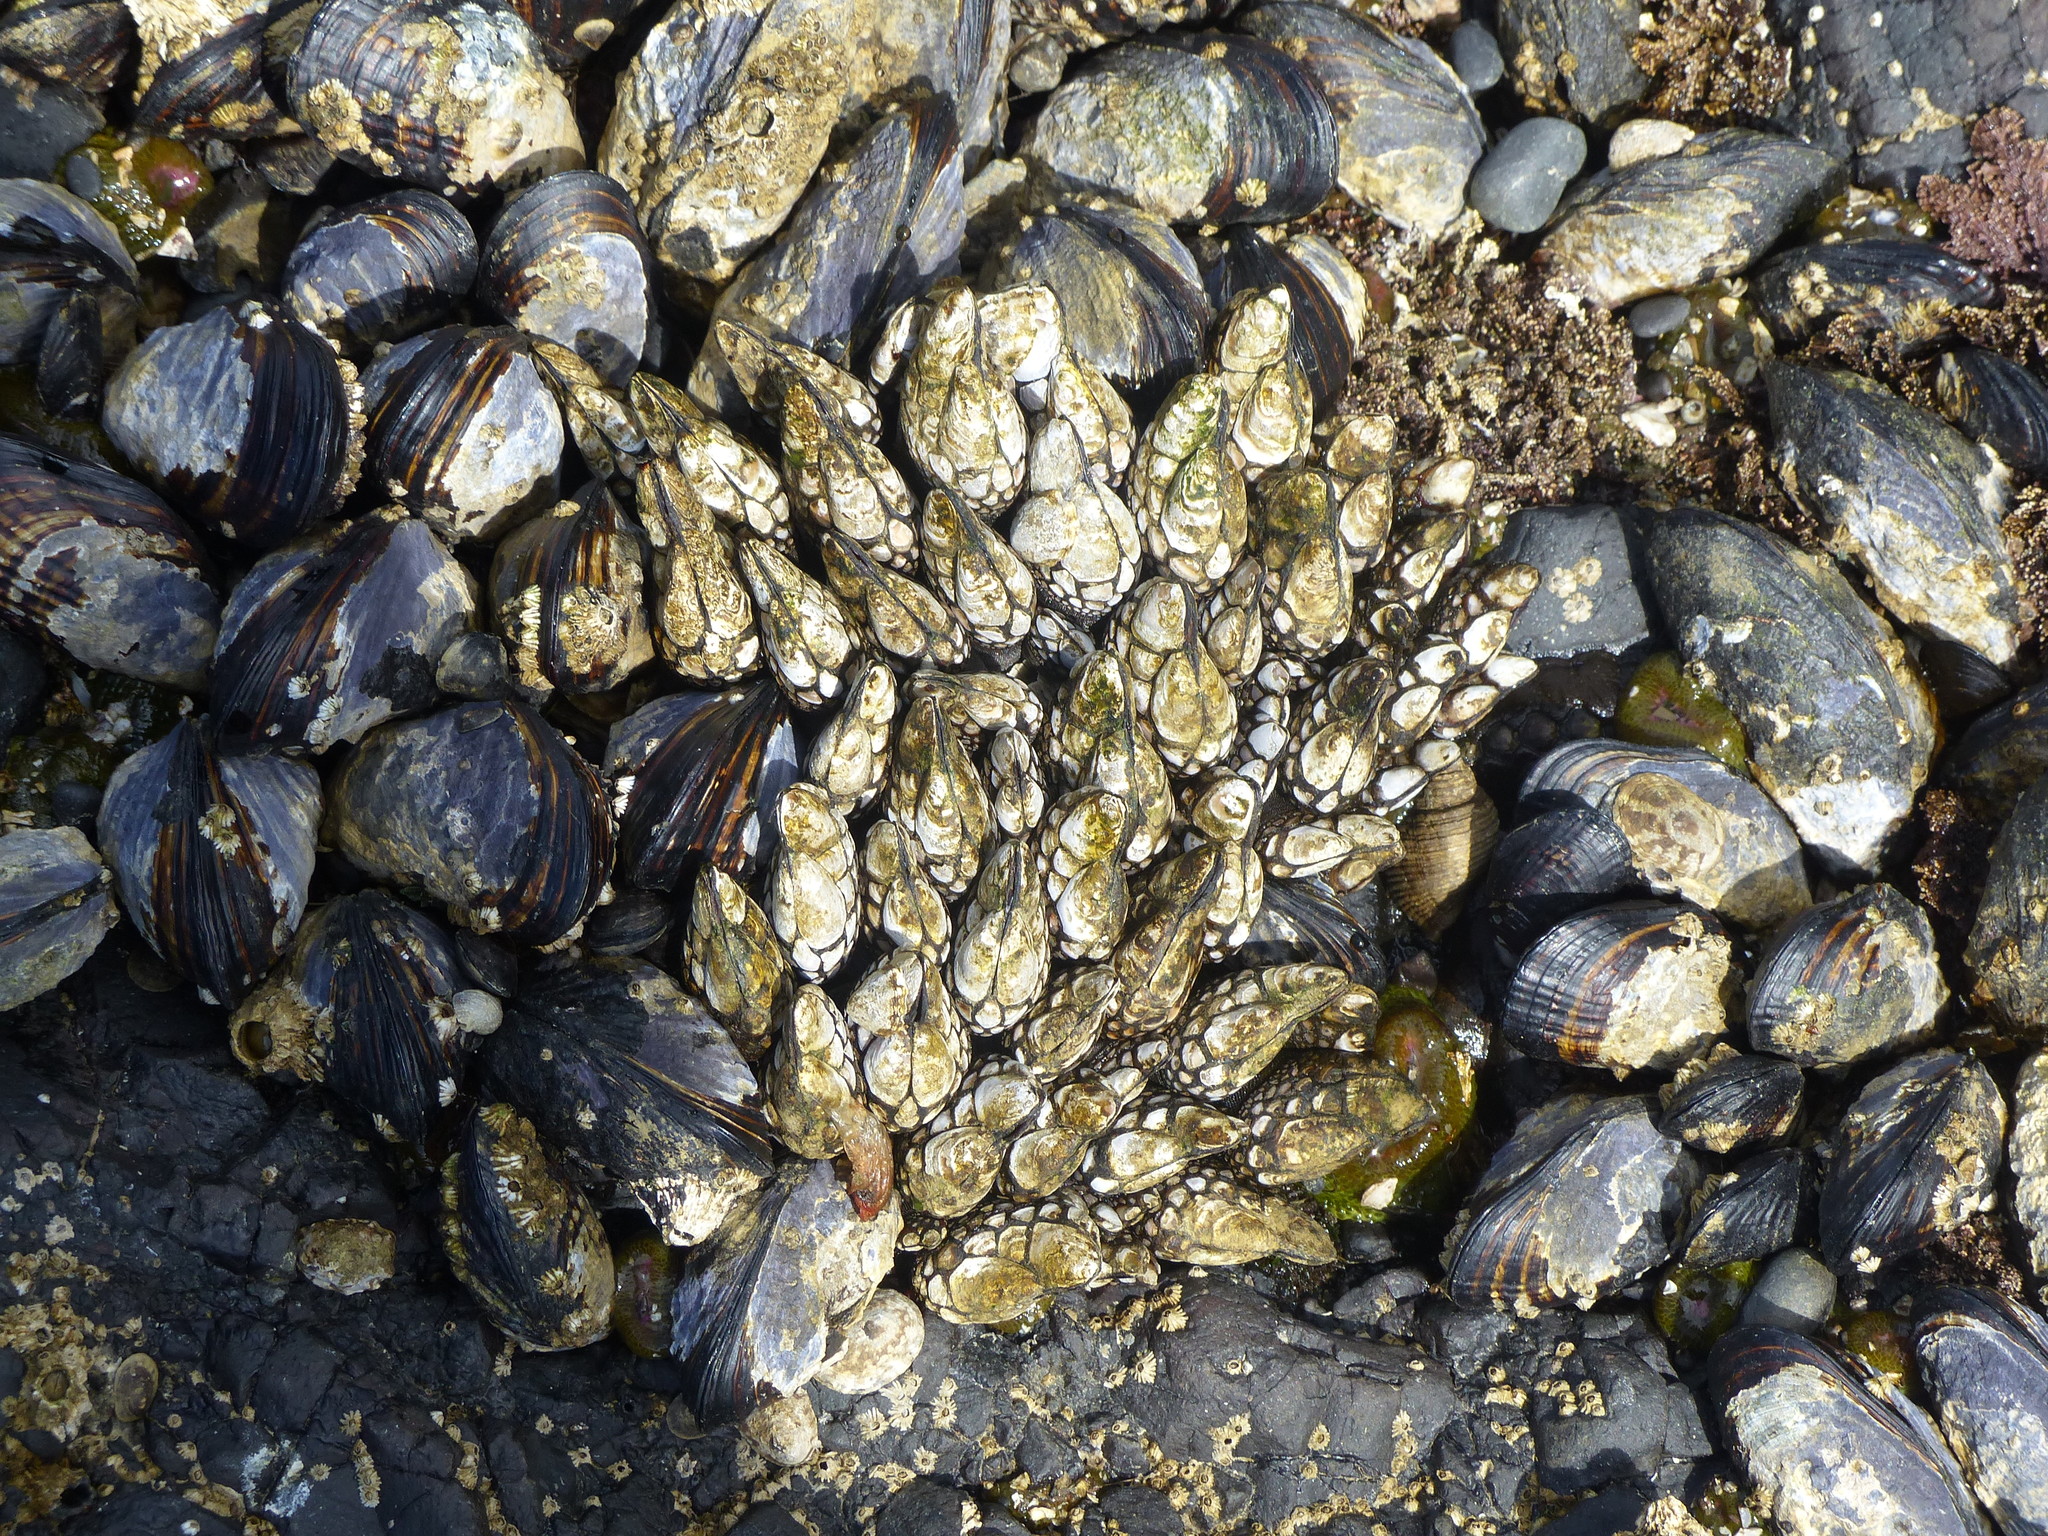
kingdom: Animalia
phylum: Arthropoda
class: Maxillopoda
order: Pedunculata
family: Pollicipedidae
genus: Pollicipes
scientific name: Pollicipes polymerus
